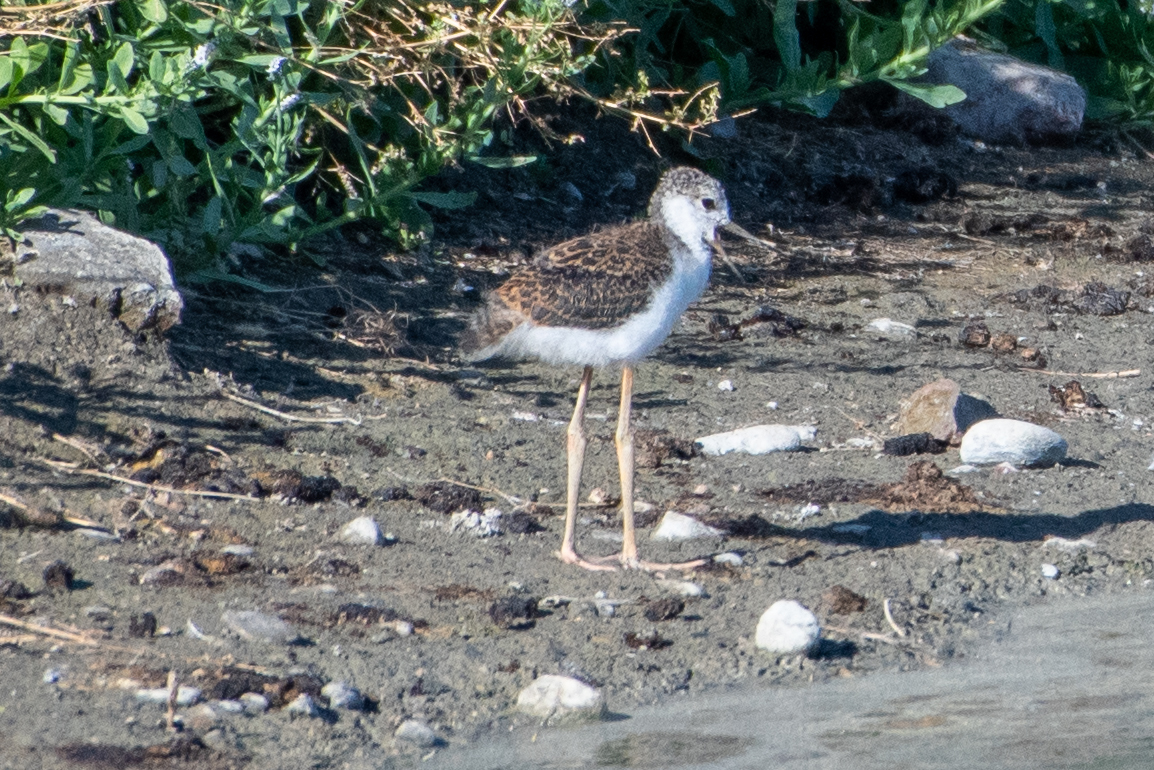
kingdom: Animalia
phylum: Chordata
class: Aves
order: Charadriiformes
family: Recurvirostridae
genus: Himantopus
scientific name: Himantopus mexicanus
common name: Black-necked stilt
